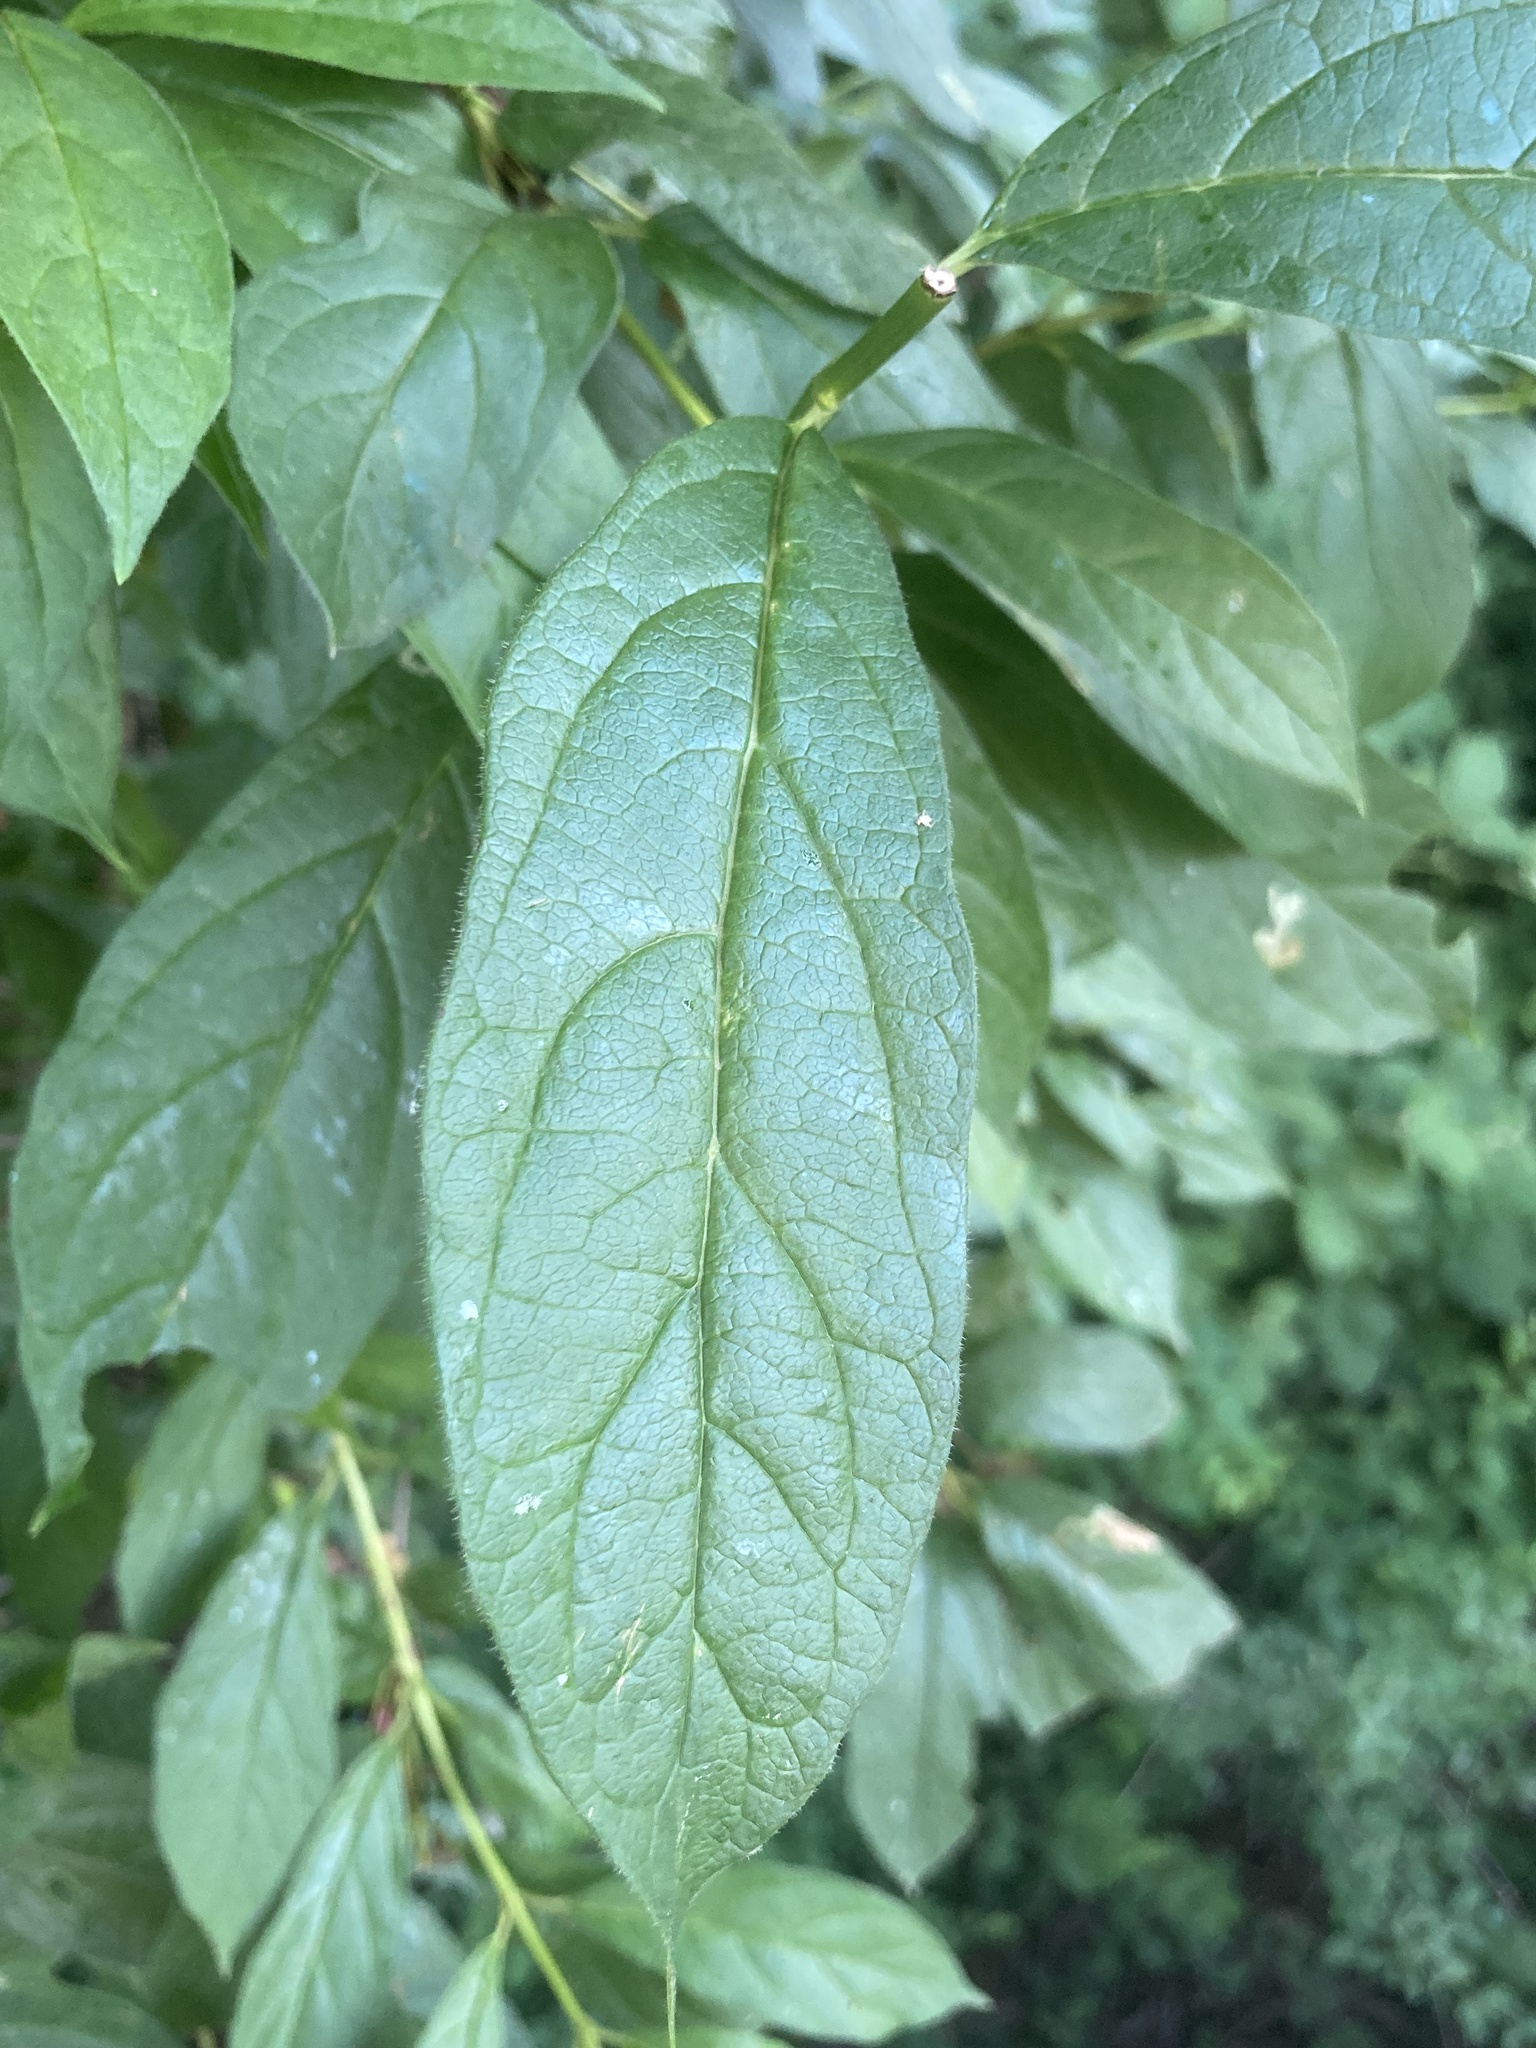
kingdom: Plantae
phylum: Tracheophyta
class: Magnoliopsida
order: Dipsacales
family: Caprifoliaceae
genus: Lonicera
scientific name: Lonicera involucrata
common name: Californian honeysuckle
